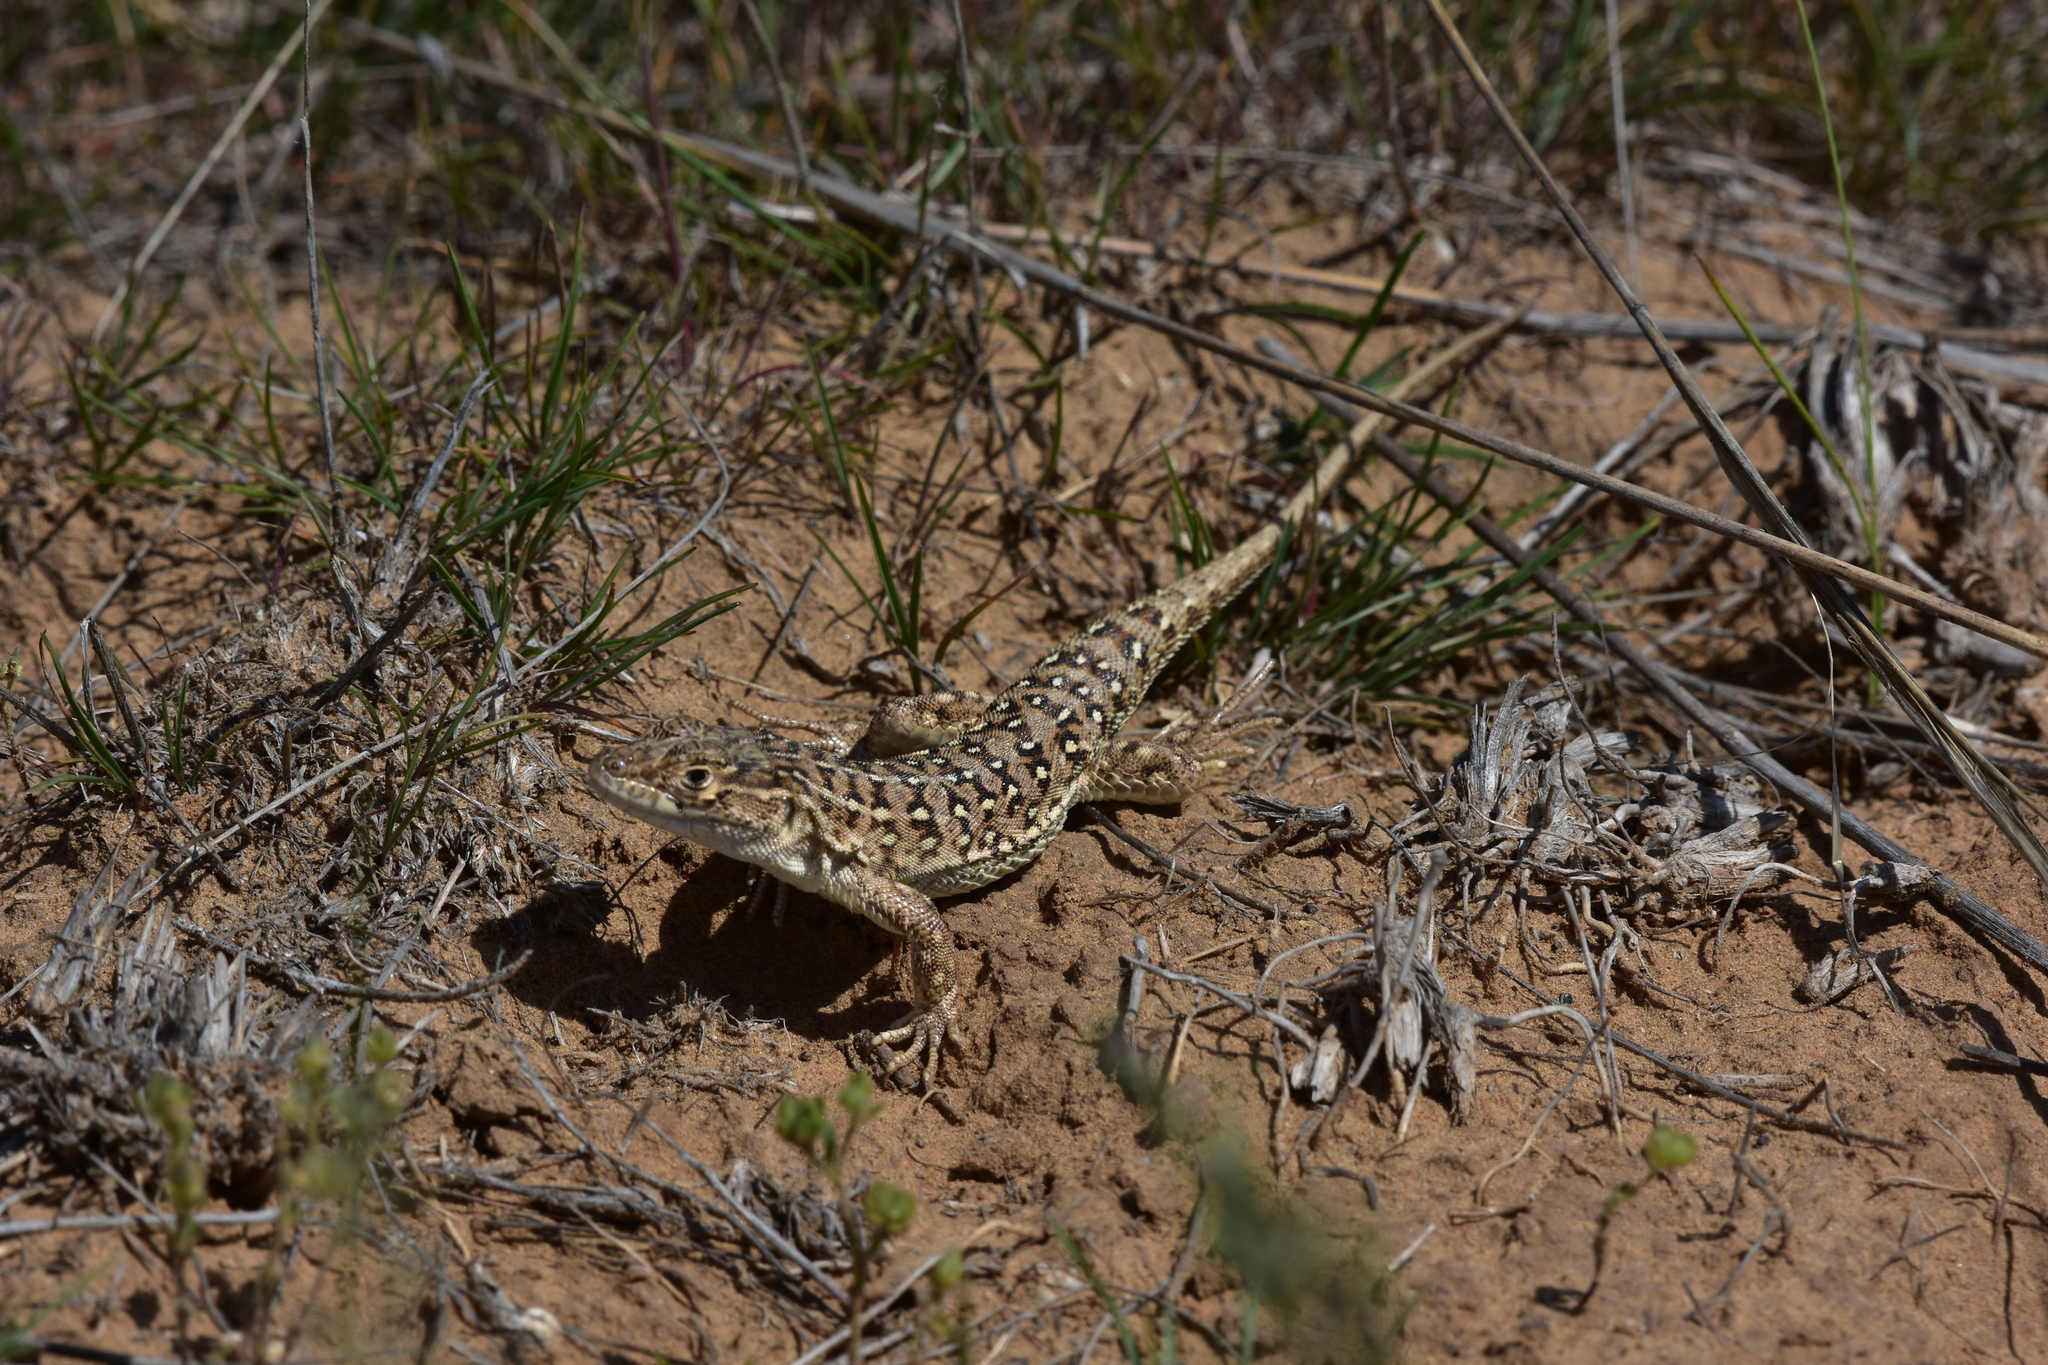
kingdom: Animalia
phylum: Chordata
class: Squamata
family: Lacertidae
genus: Eremias
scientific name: Eremias arguta
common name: Racerunner
